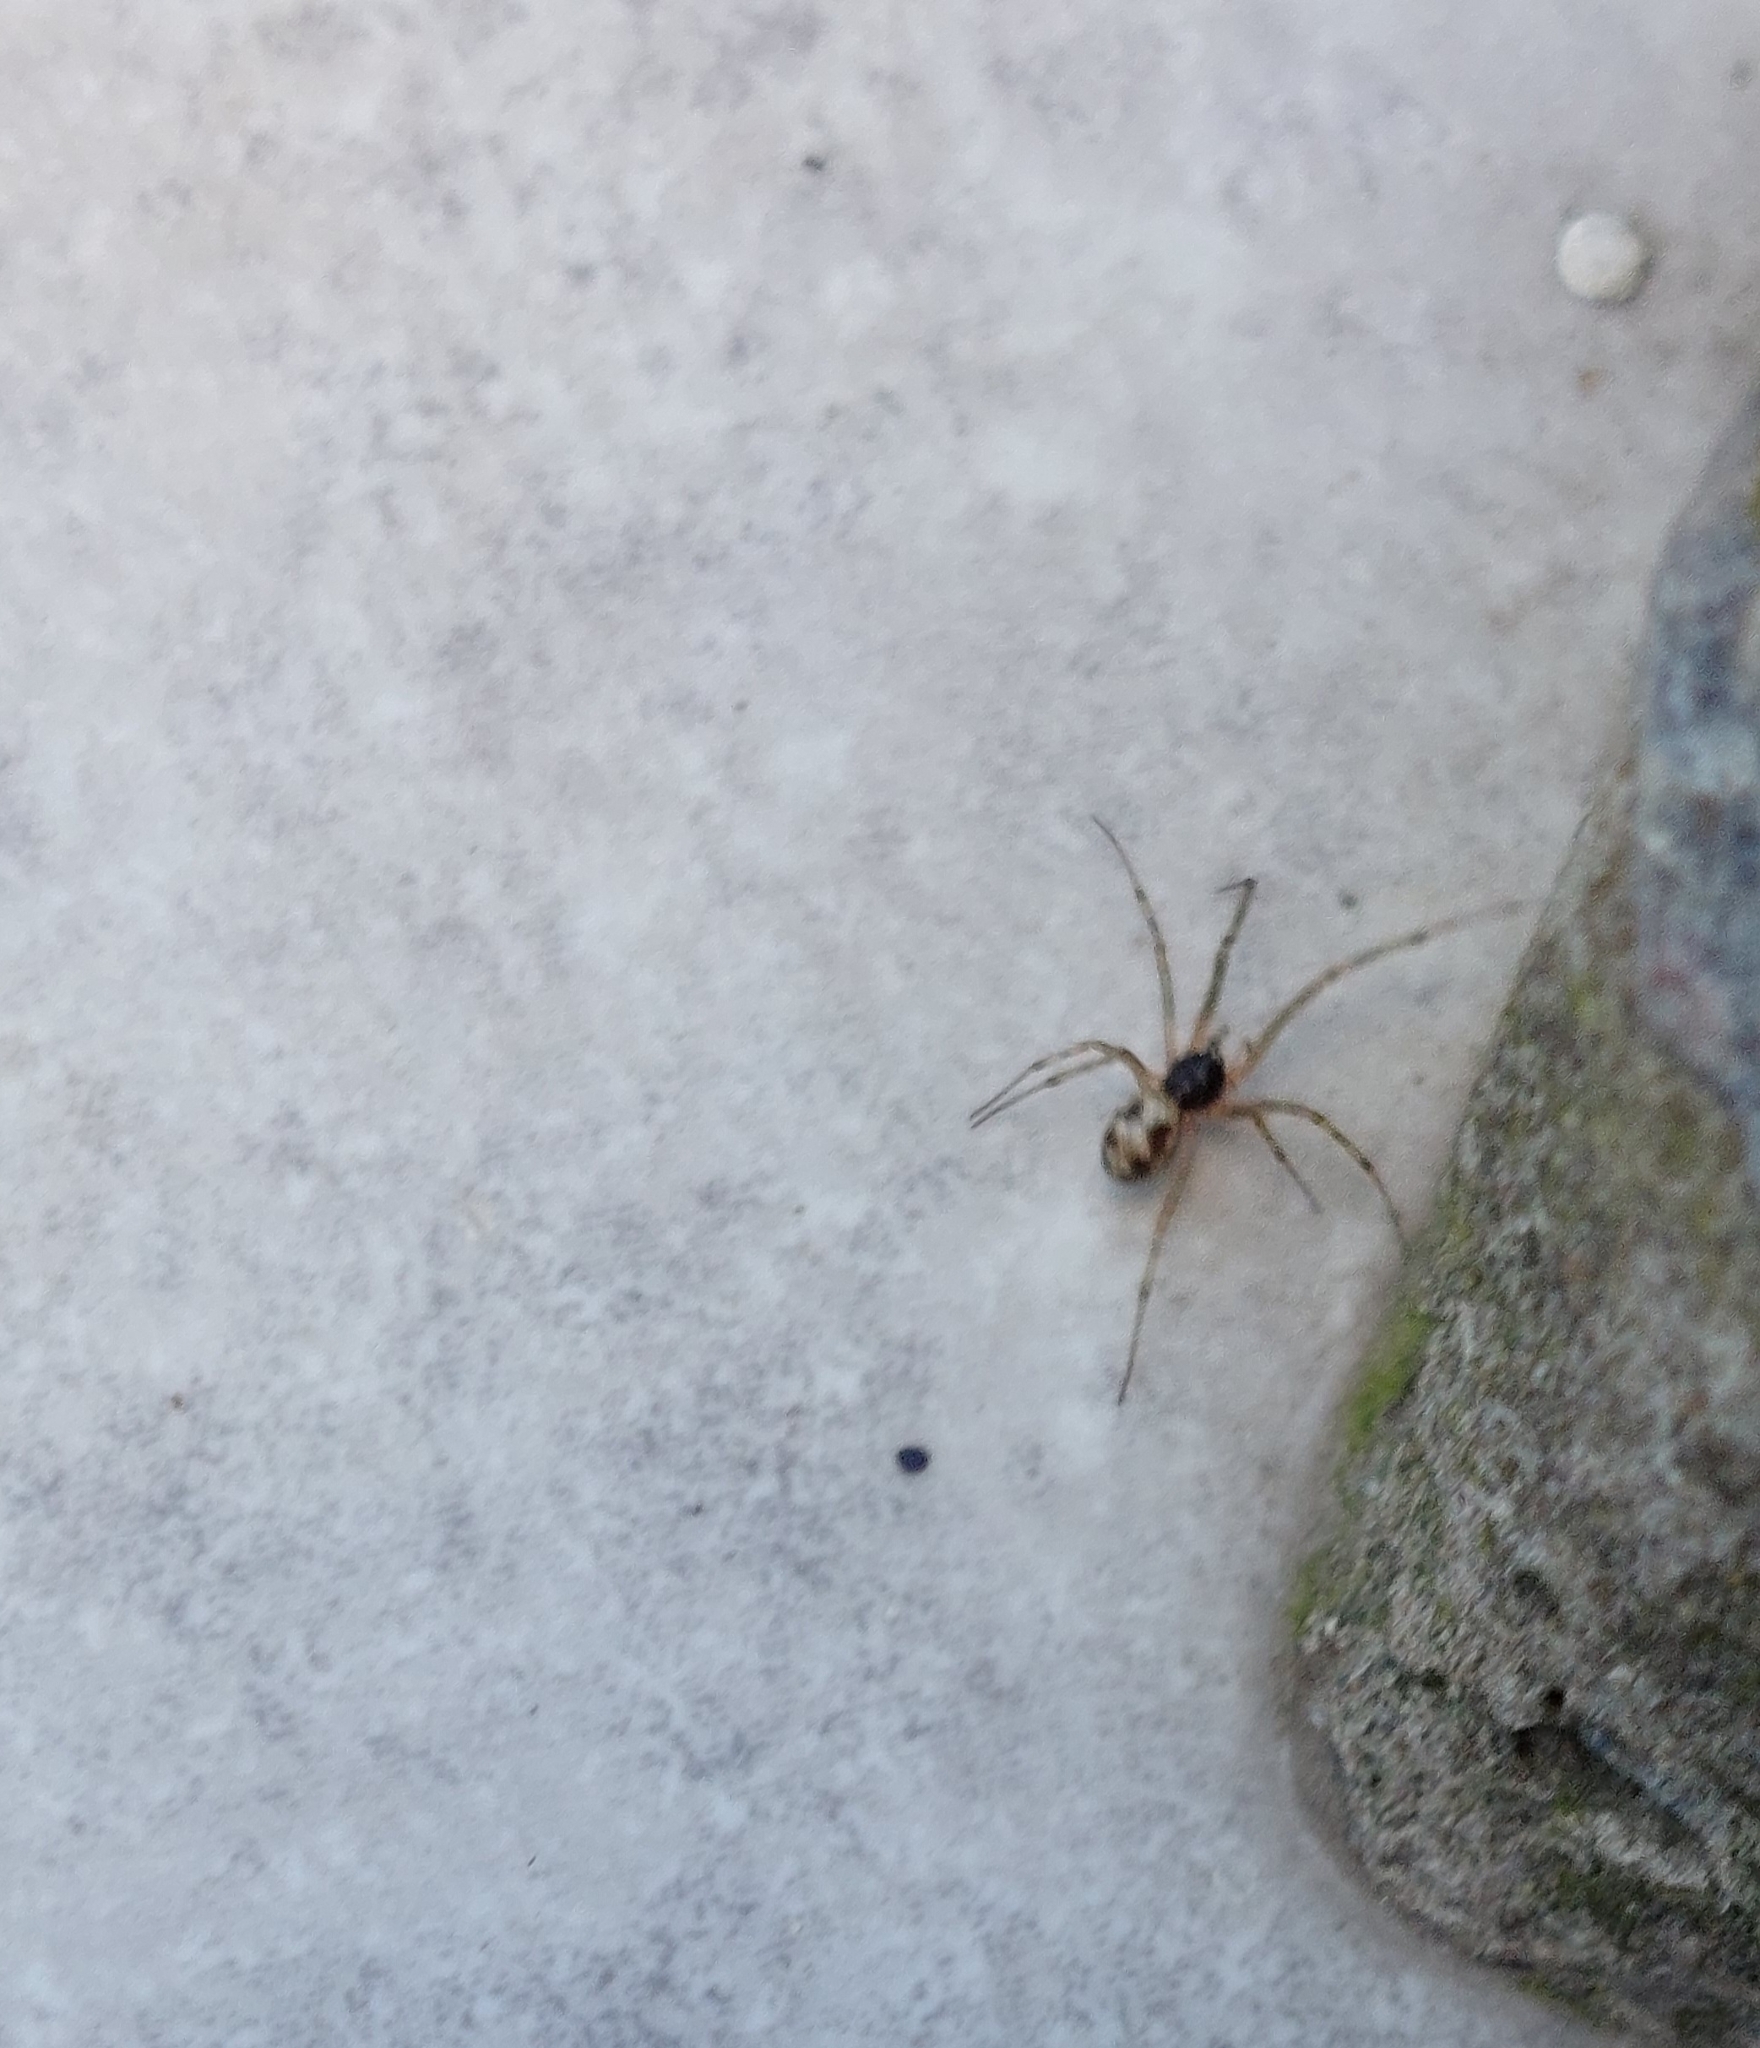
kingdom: Animalia
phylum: Arthropoda
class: Arachnida
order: Araneae
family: Theridiidae
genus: Steatoda
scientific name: Steatoda triangulosa
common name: Triangulate bud spider
